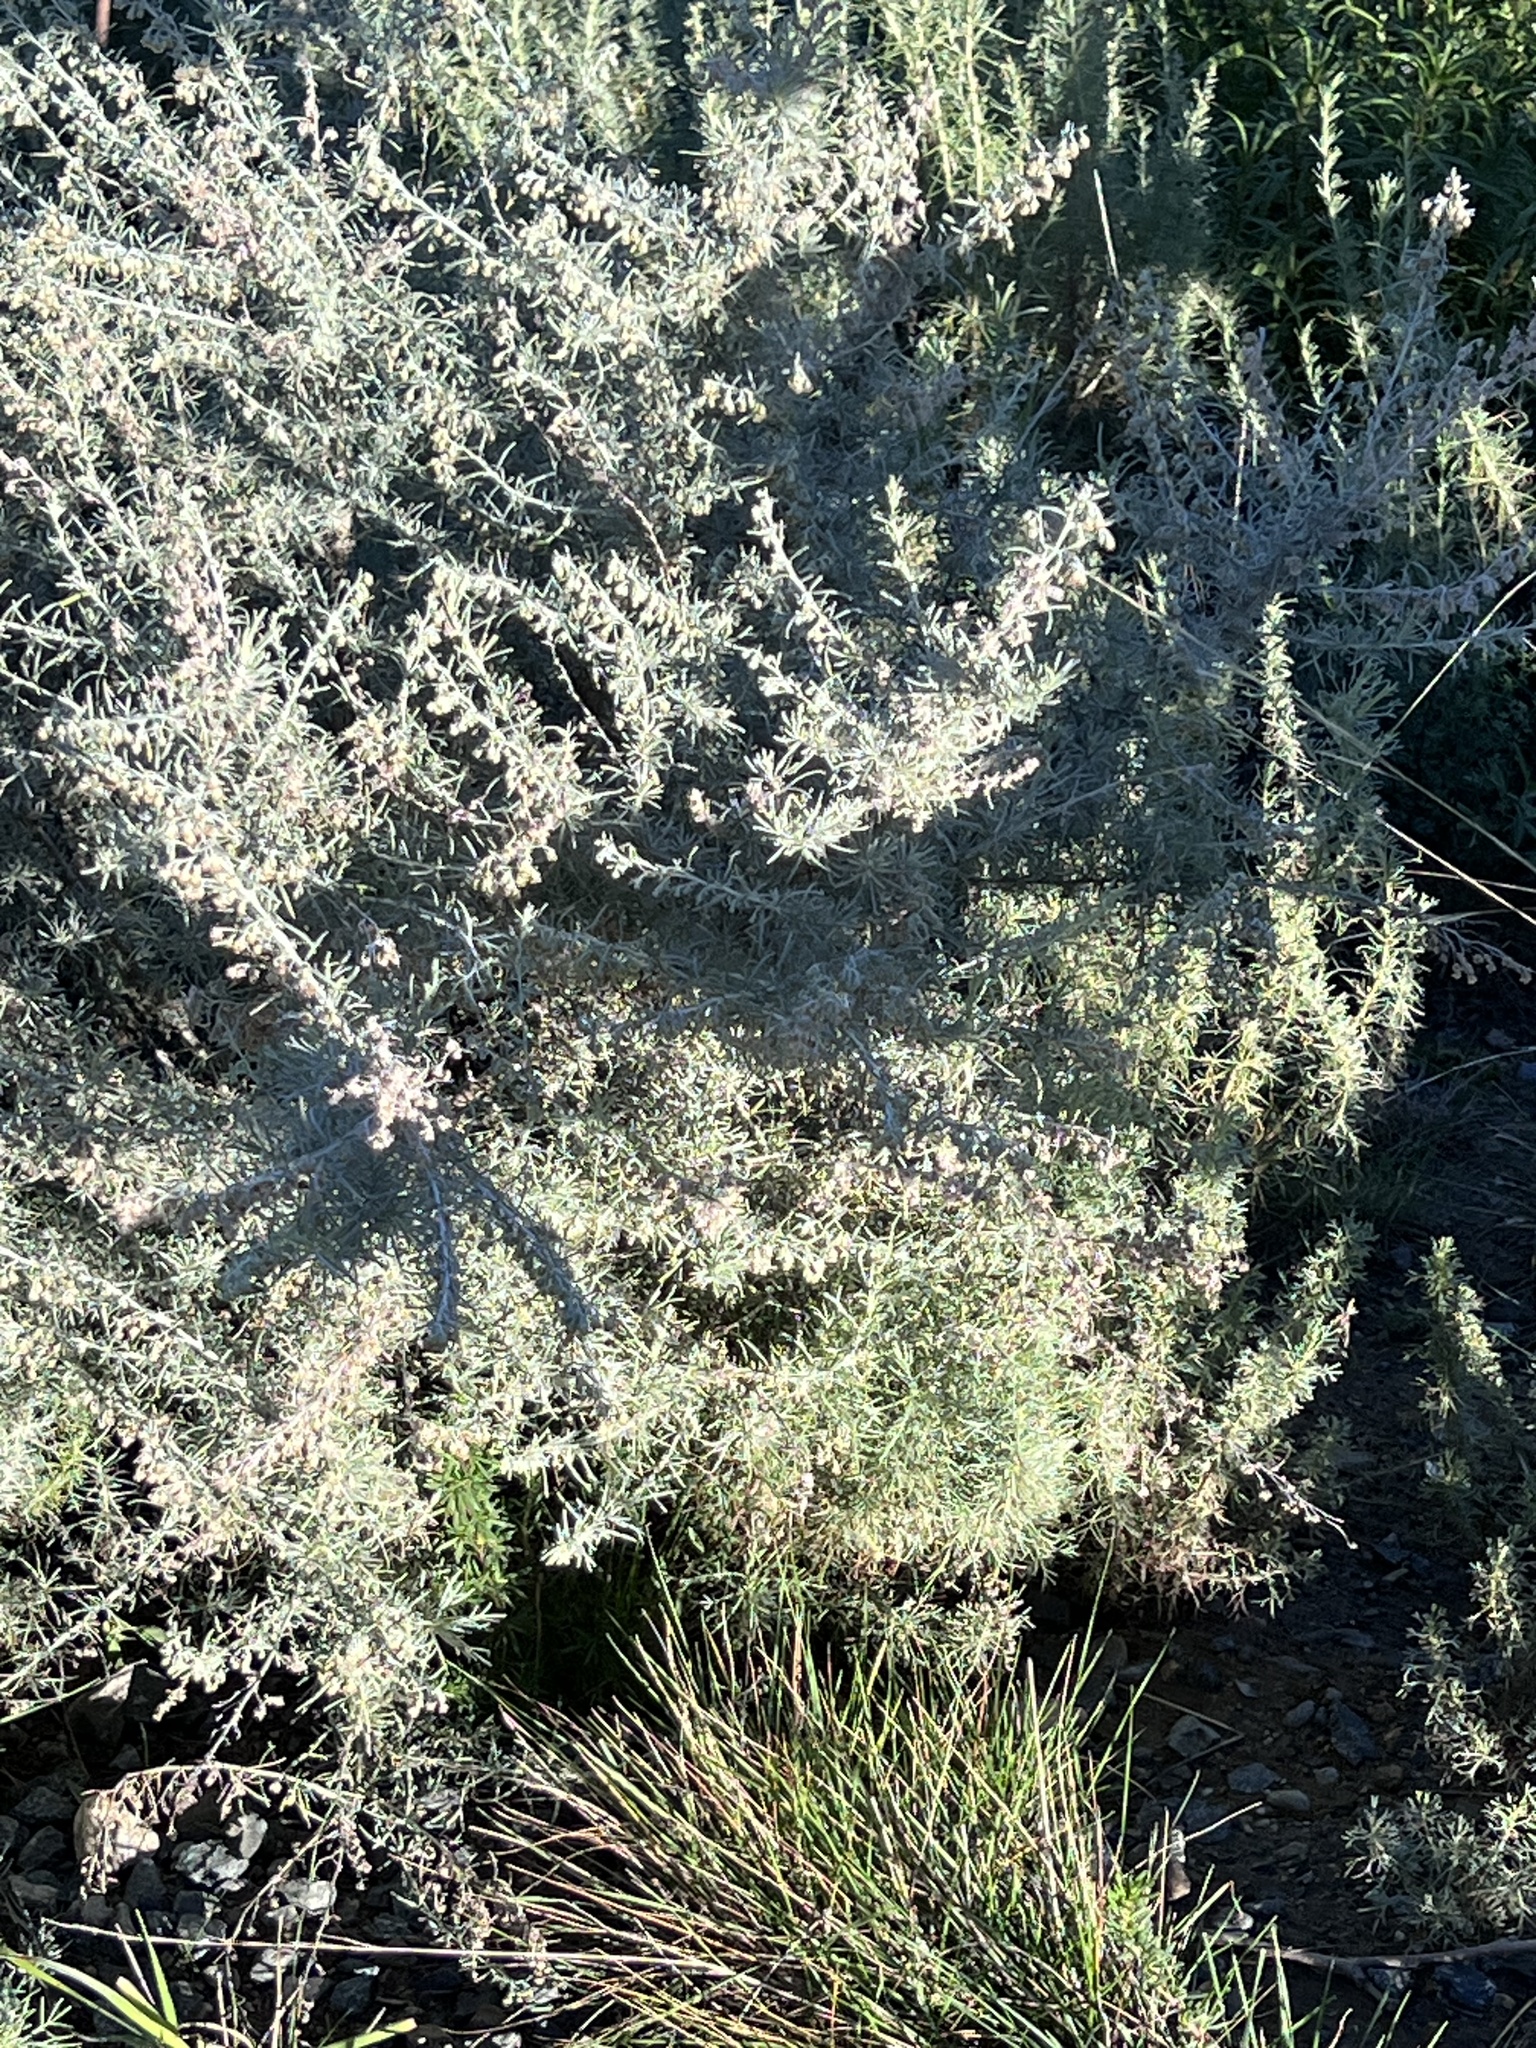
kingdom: Plantae
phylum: Tracheophyta
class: Magnoliopsida
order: Asterales
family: Asteraceae
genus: Artemisia
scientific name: Artemisia californica
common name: California sagebrush
